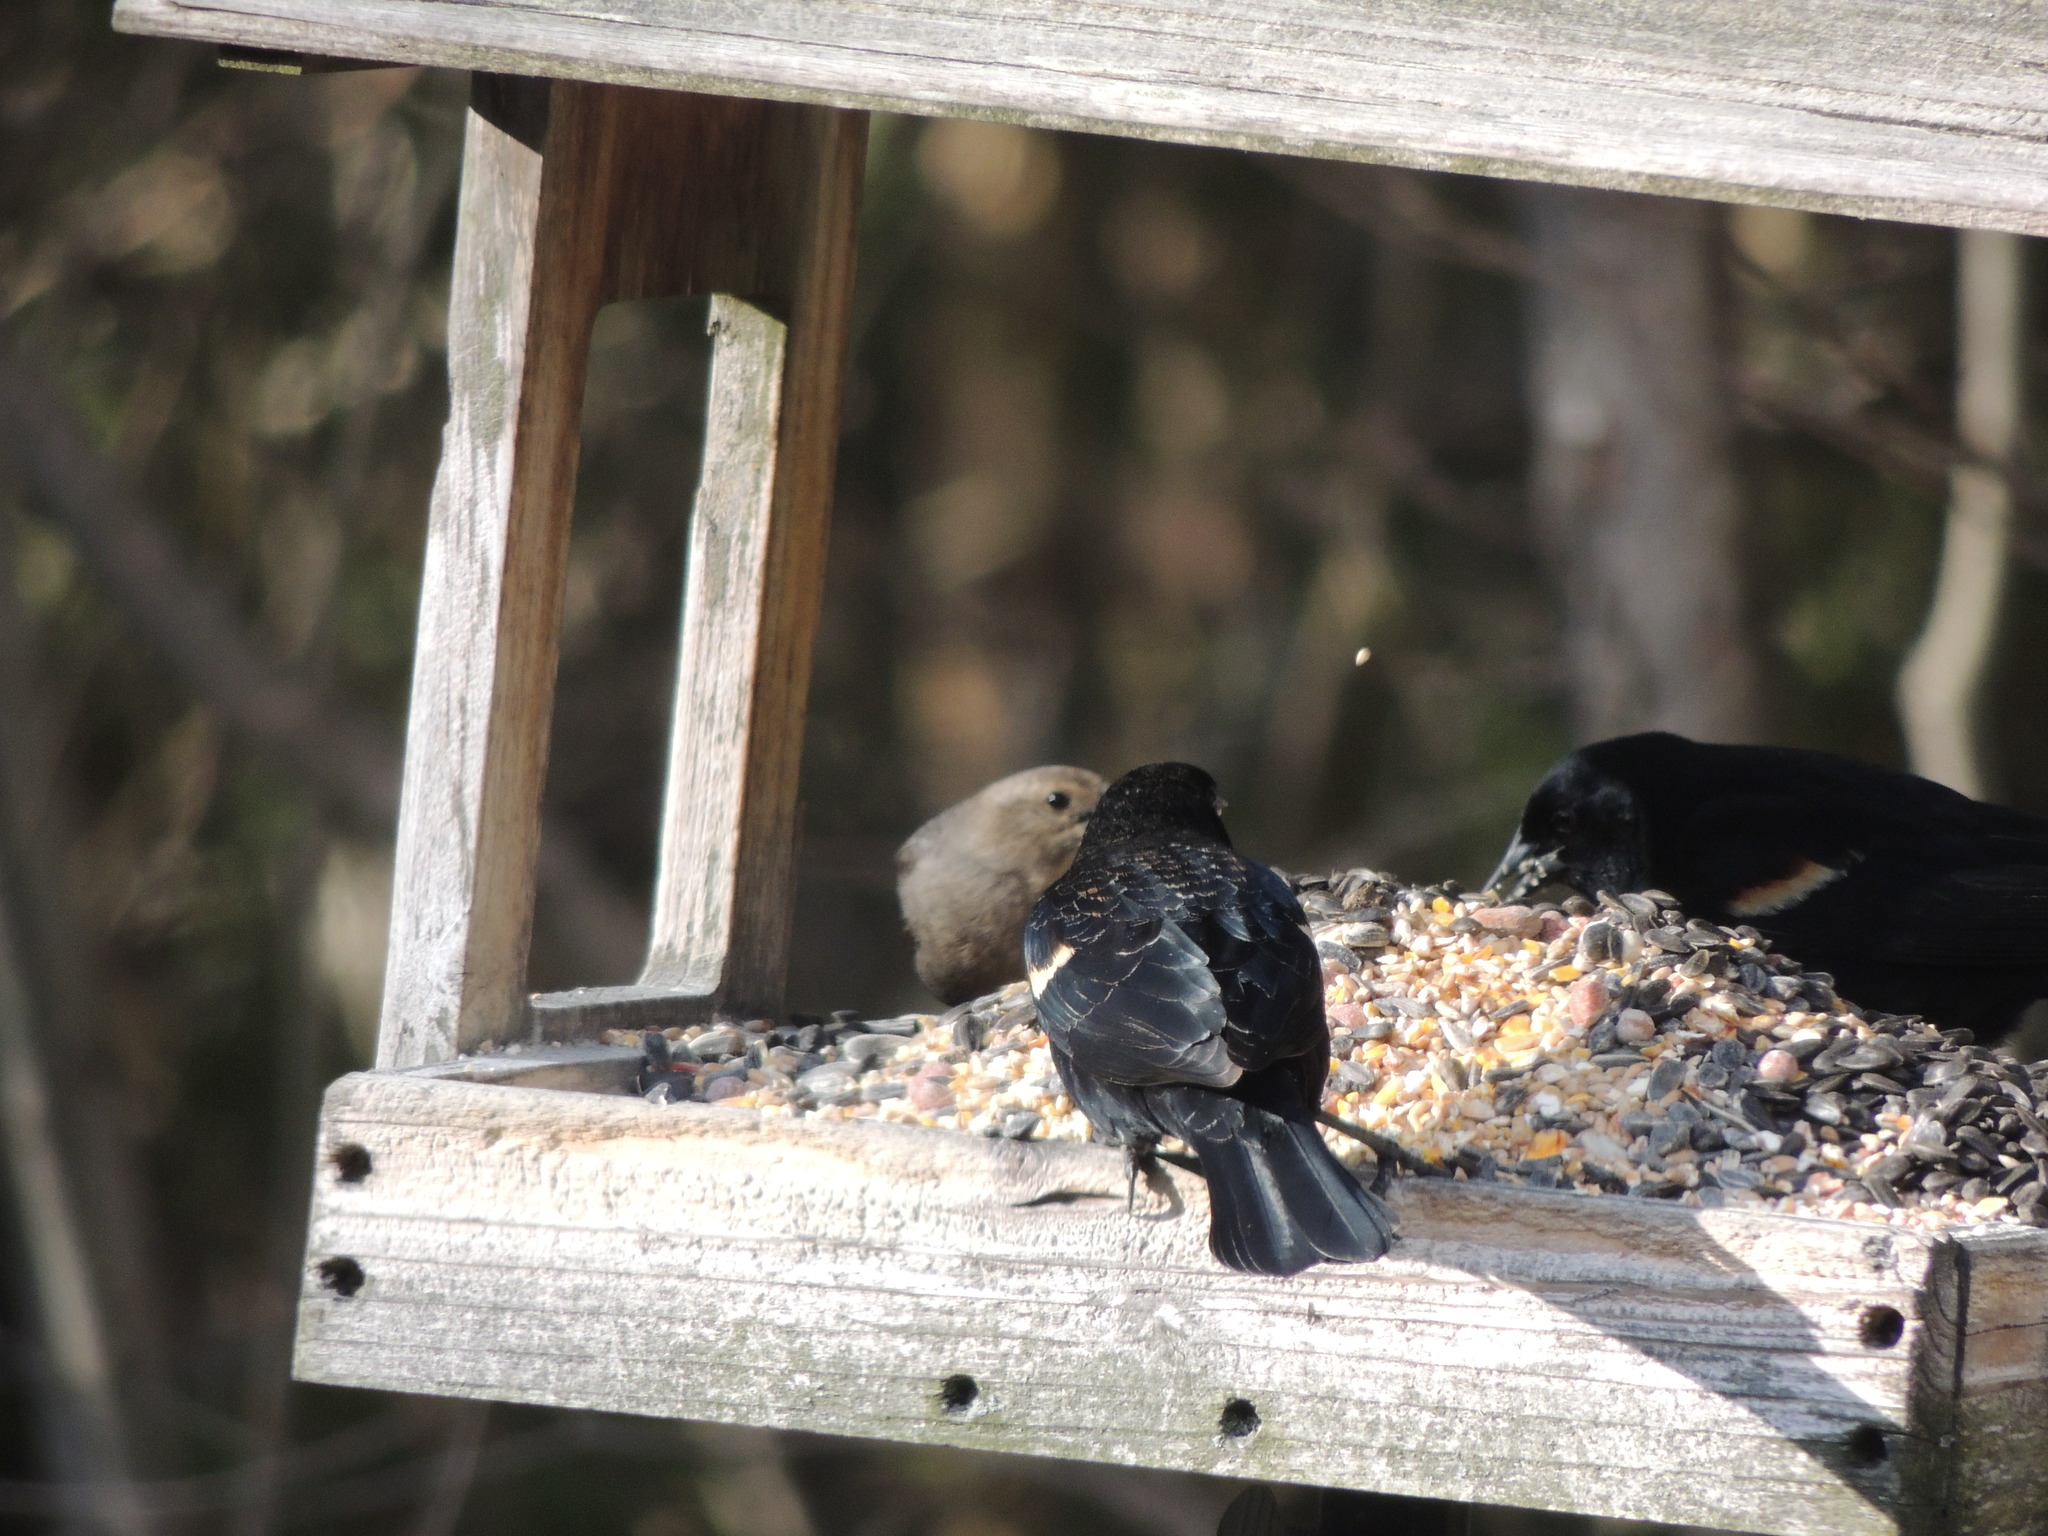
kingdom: Animalia
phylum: Chordata
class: Aves
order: Passeriformes
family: Icteridae
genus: Agelaius
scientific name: Agelaius phoeniceus
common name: Red-winged blackbird
